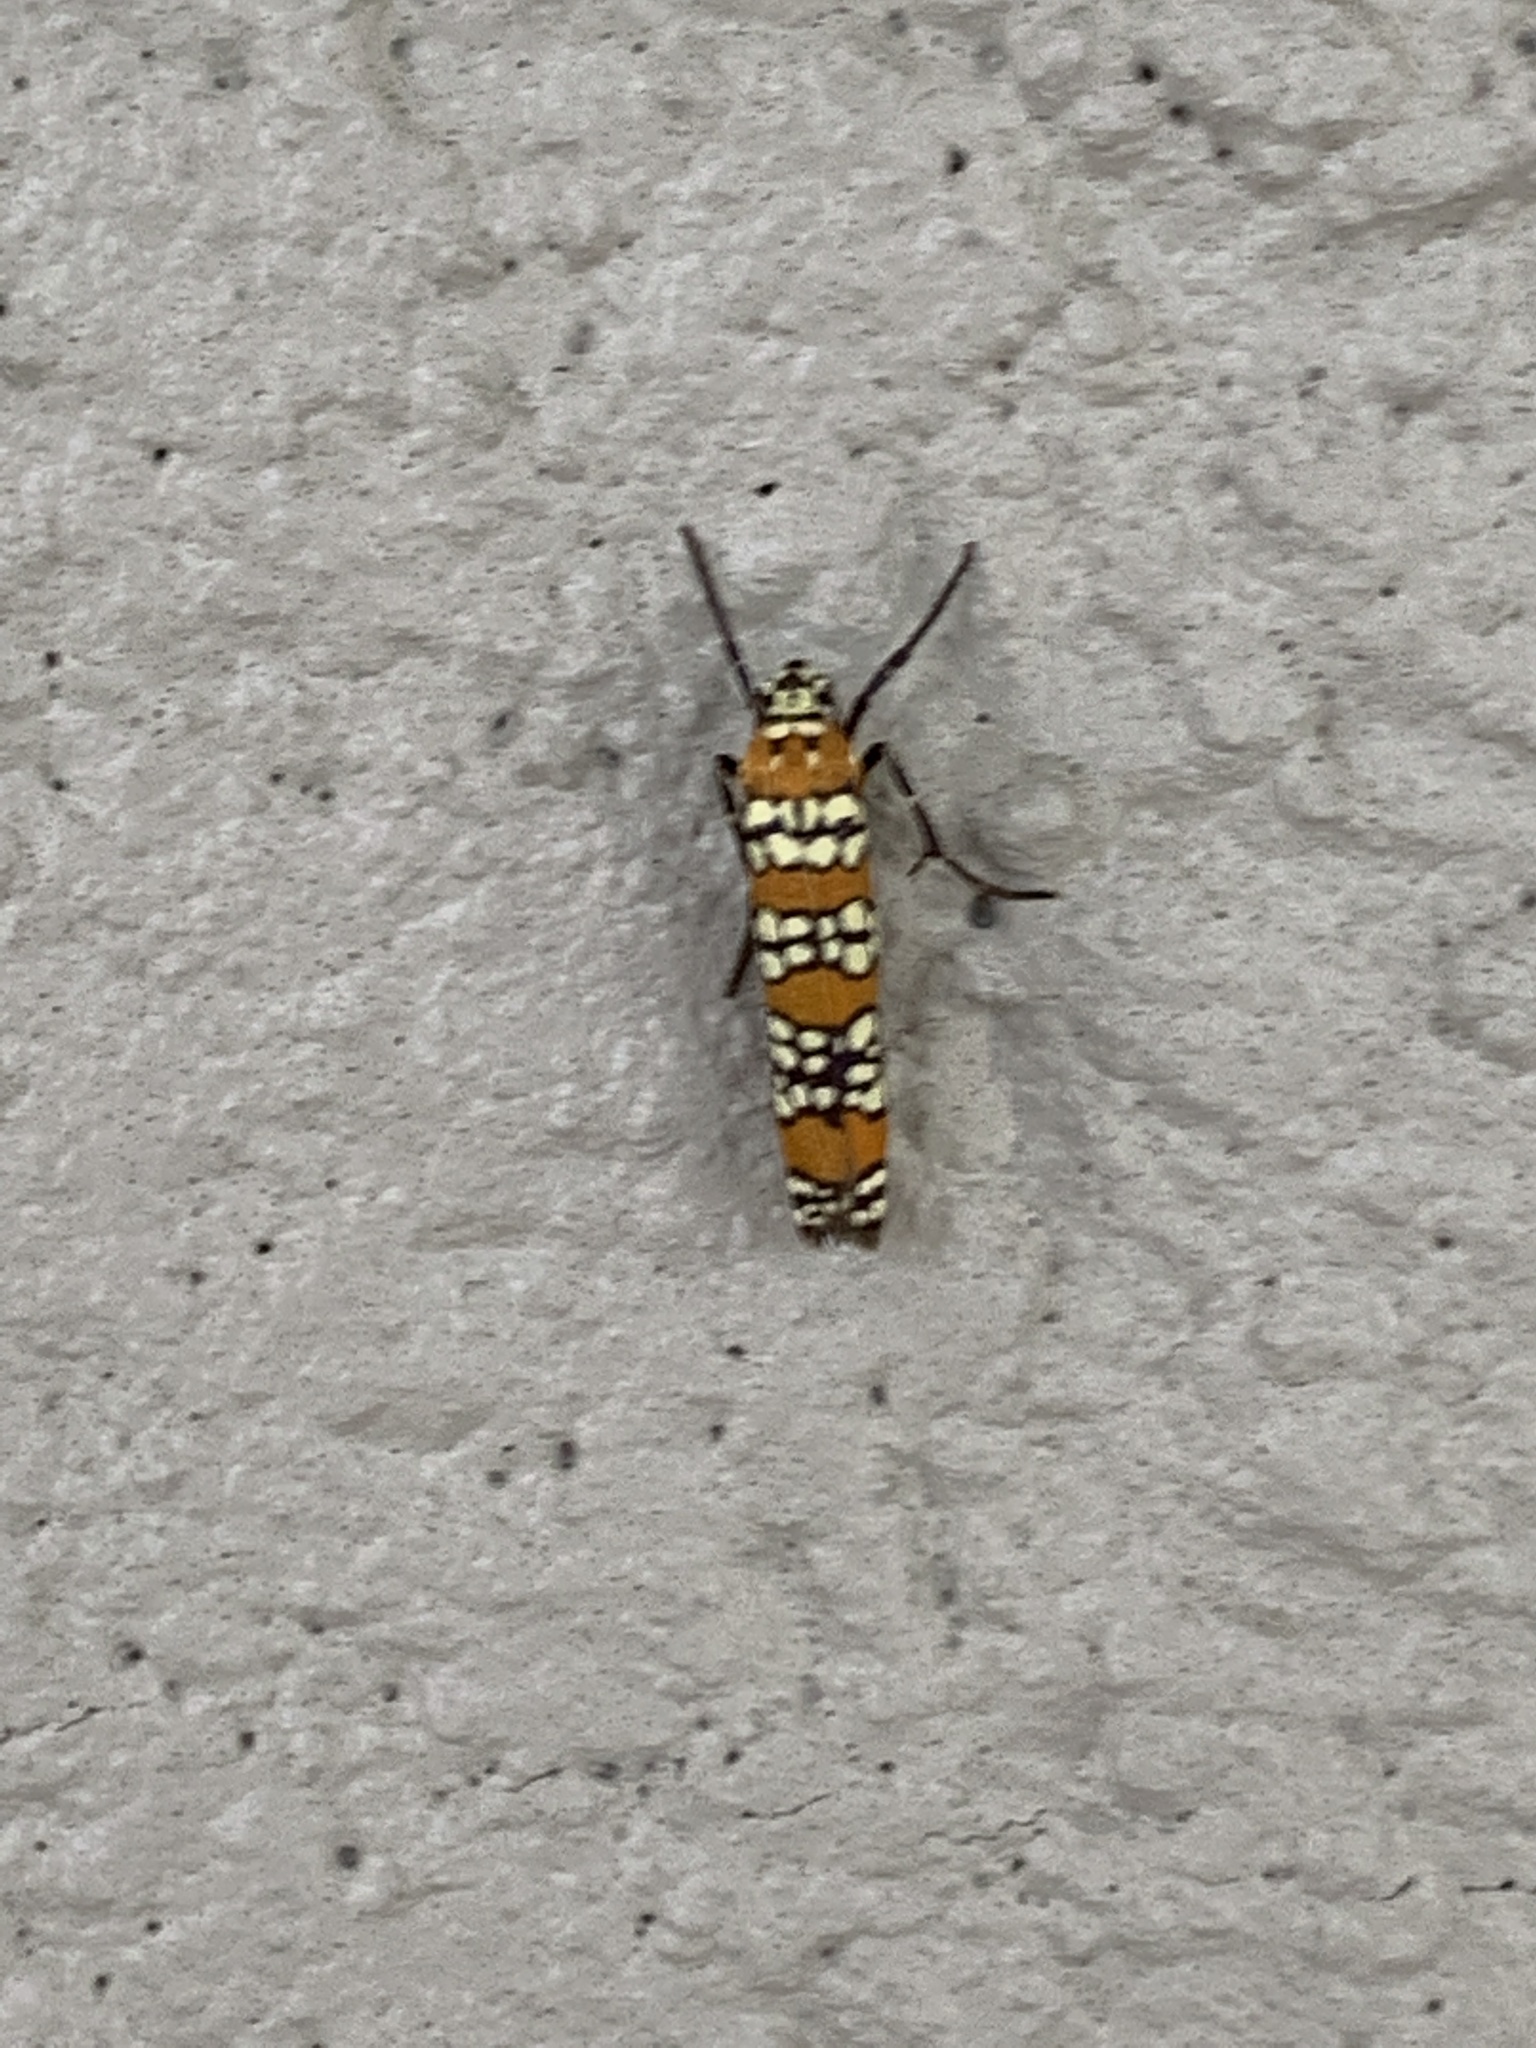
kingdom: Animalia
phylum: Arthropoda
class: Insecta
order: Lepidoptera
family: Attevidae
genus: Atteva
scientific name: Atteva punctella
